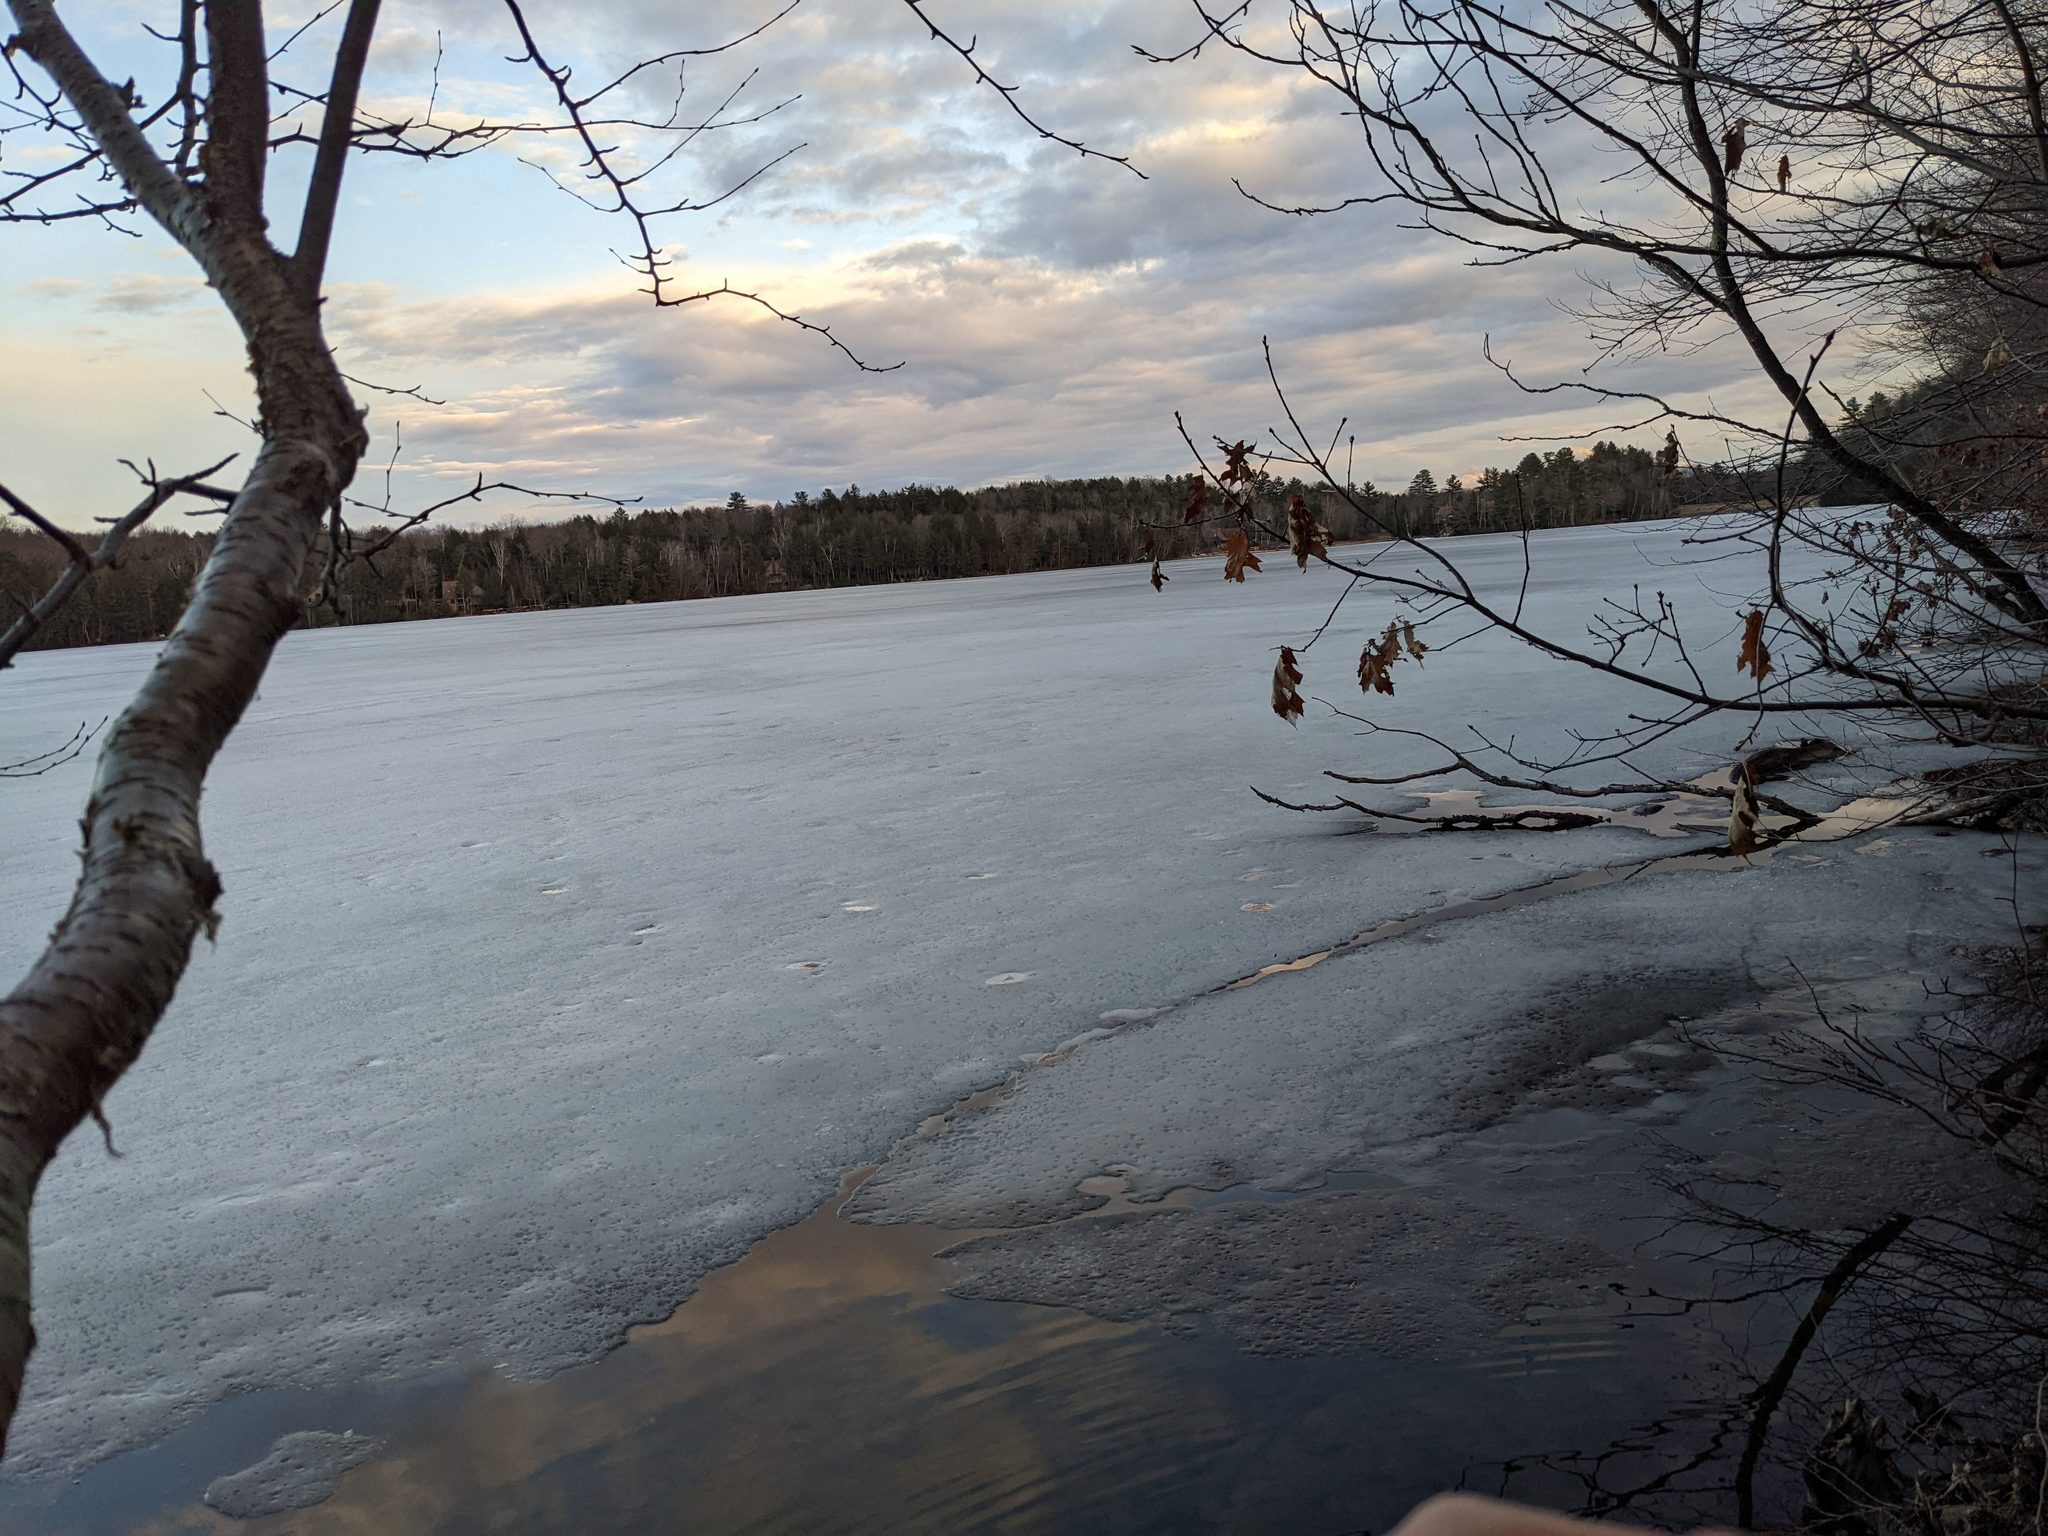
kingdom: Plantae
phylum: Tracheophyta
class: Magnoliopsida
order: Fagales
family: Fagaceae
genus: Quercus
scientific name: Quercus rubra
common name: Red oak
